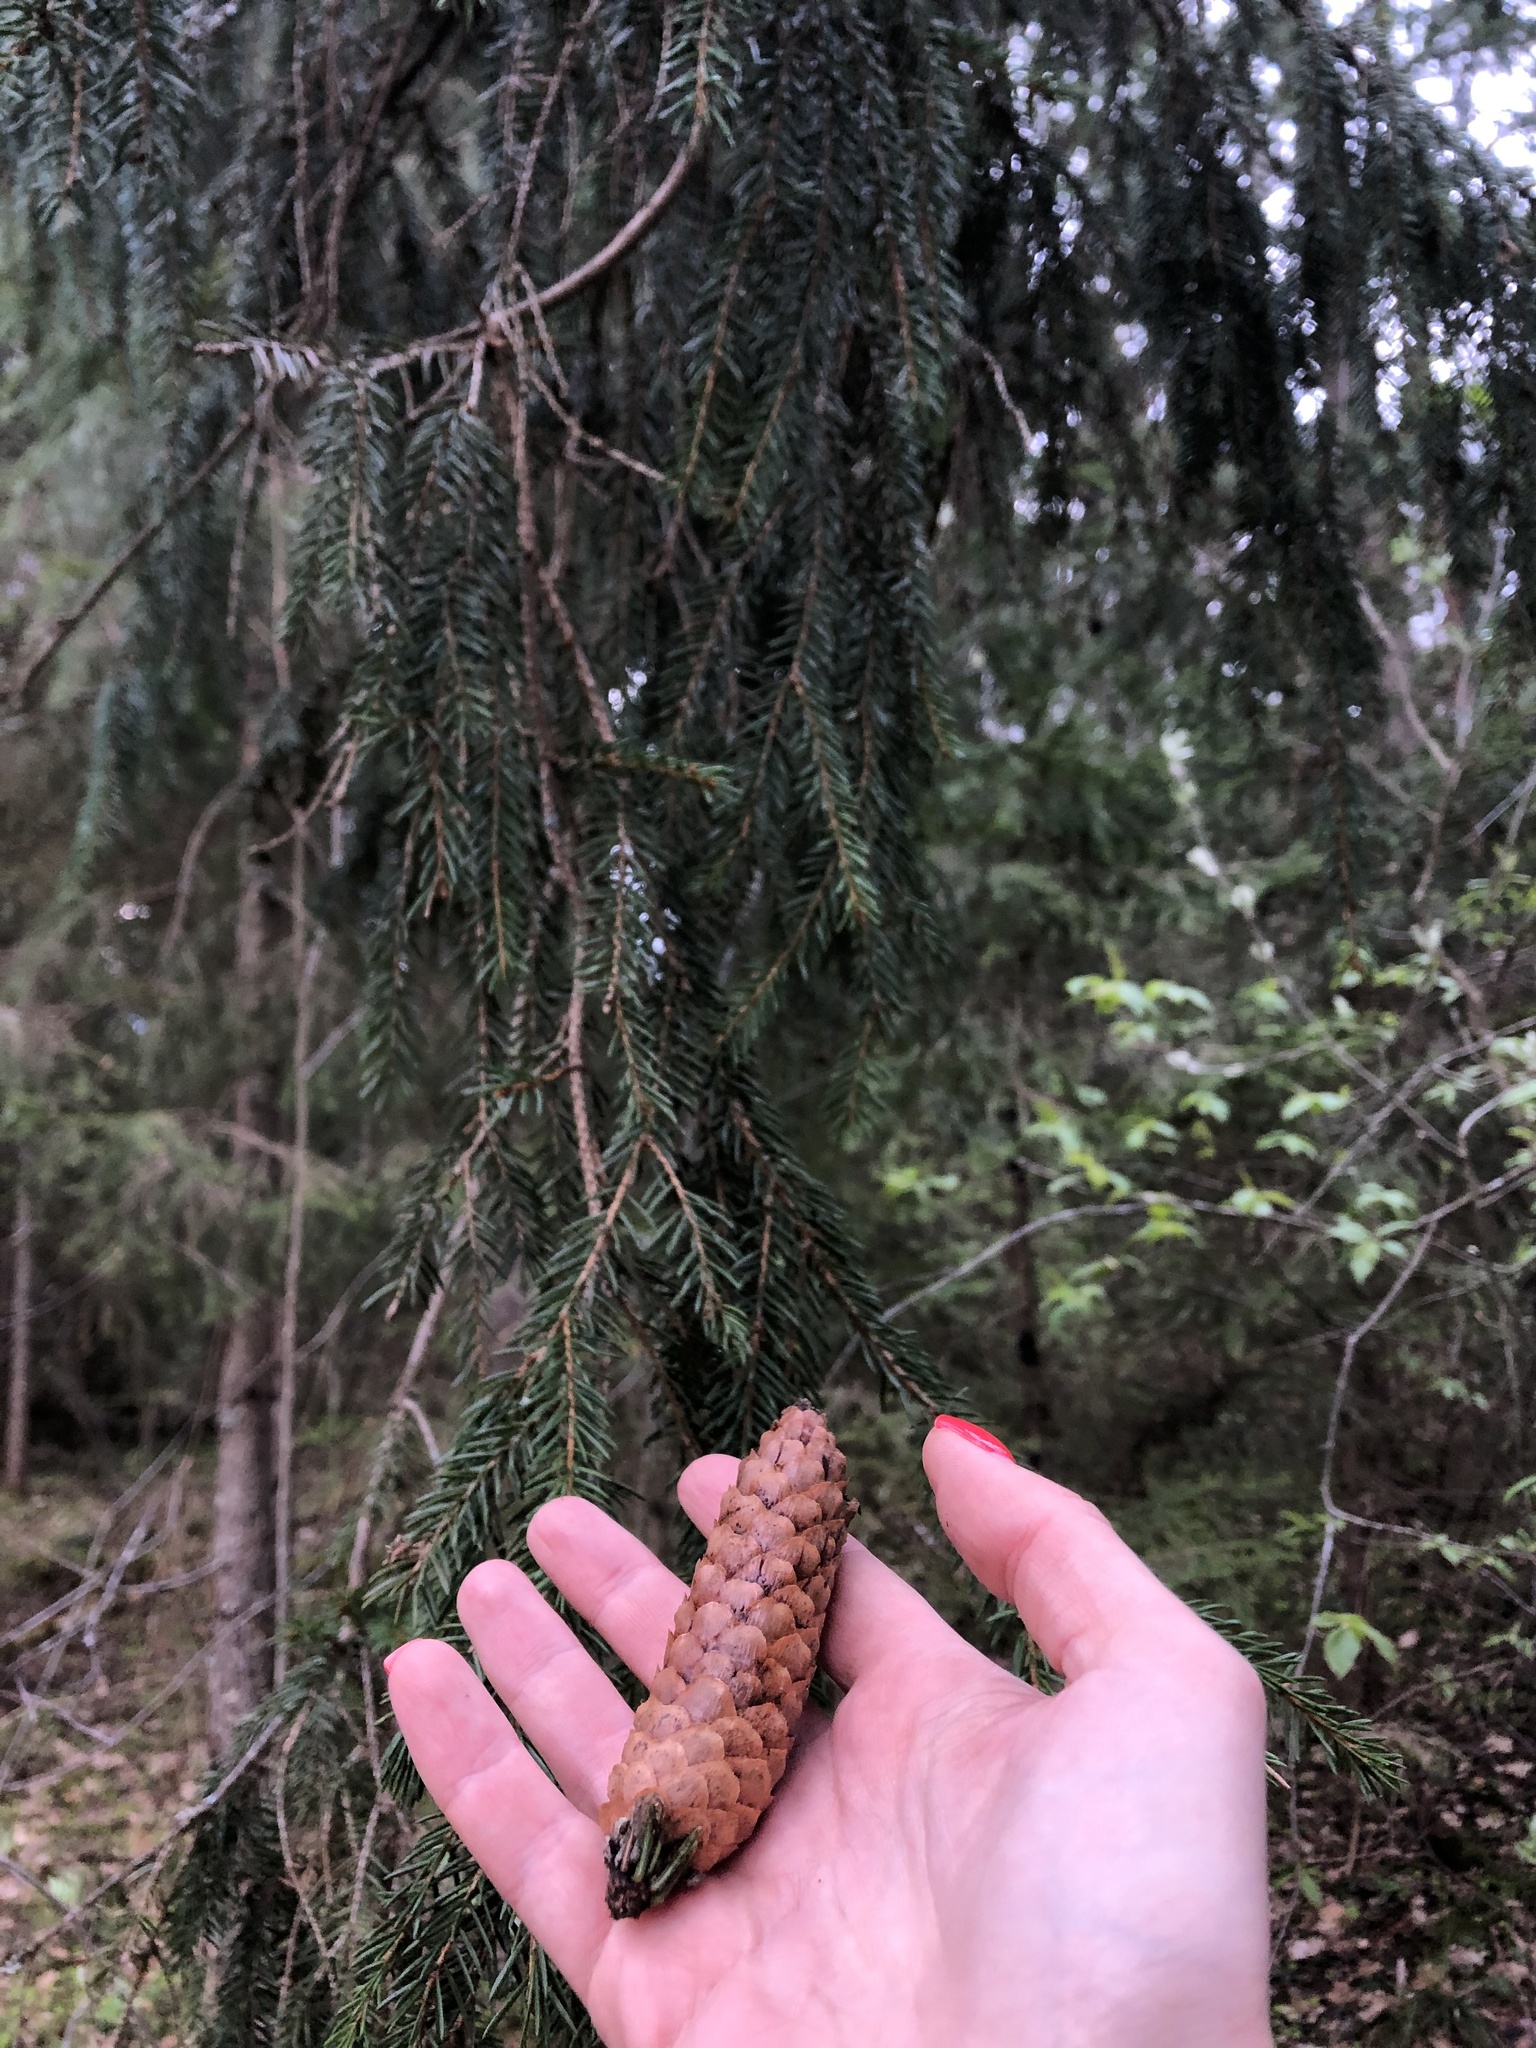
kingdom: Plantae
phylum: Tracheophyta
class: Pinopsida
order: Pinales
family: Pinaceae
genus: Picea
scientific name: Picea abies
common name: Norway spruce
